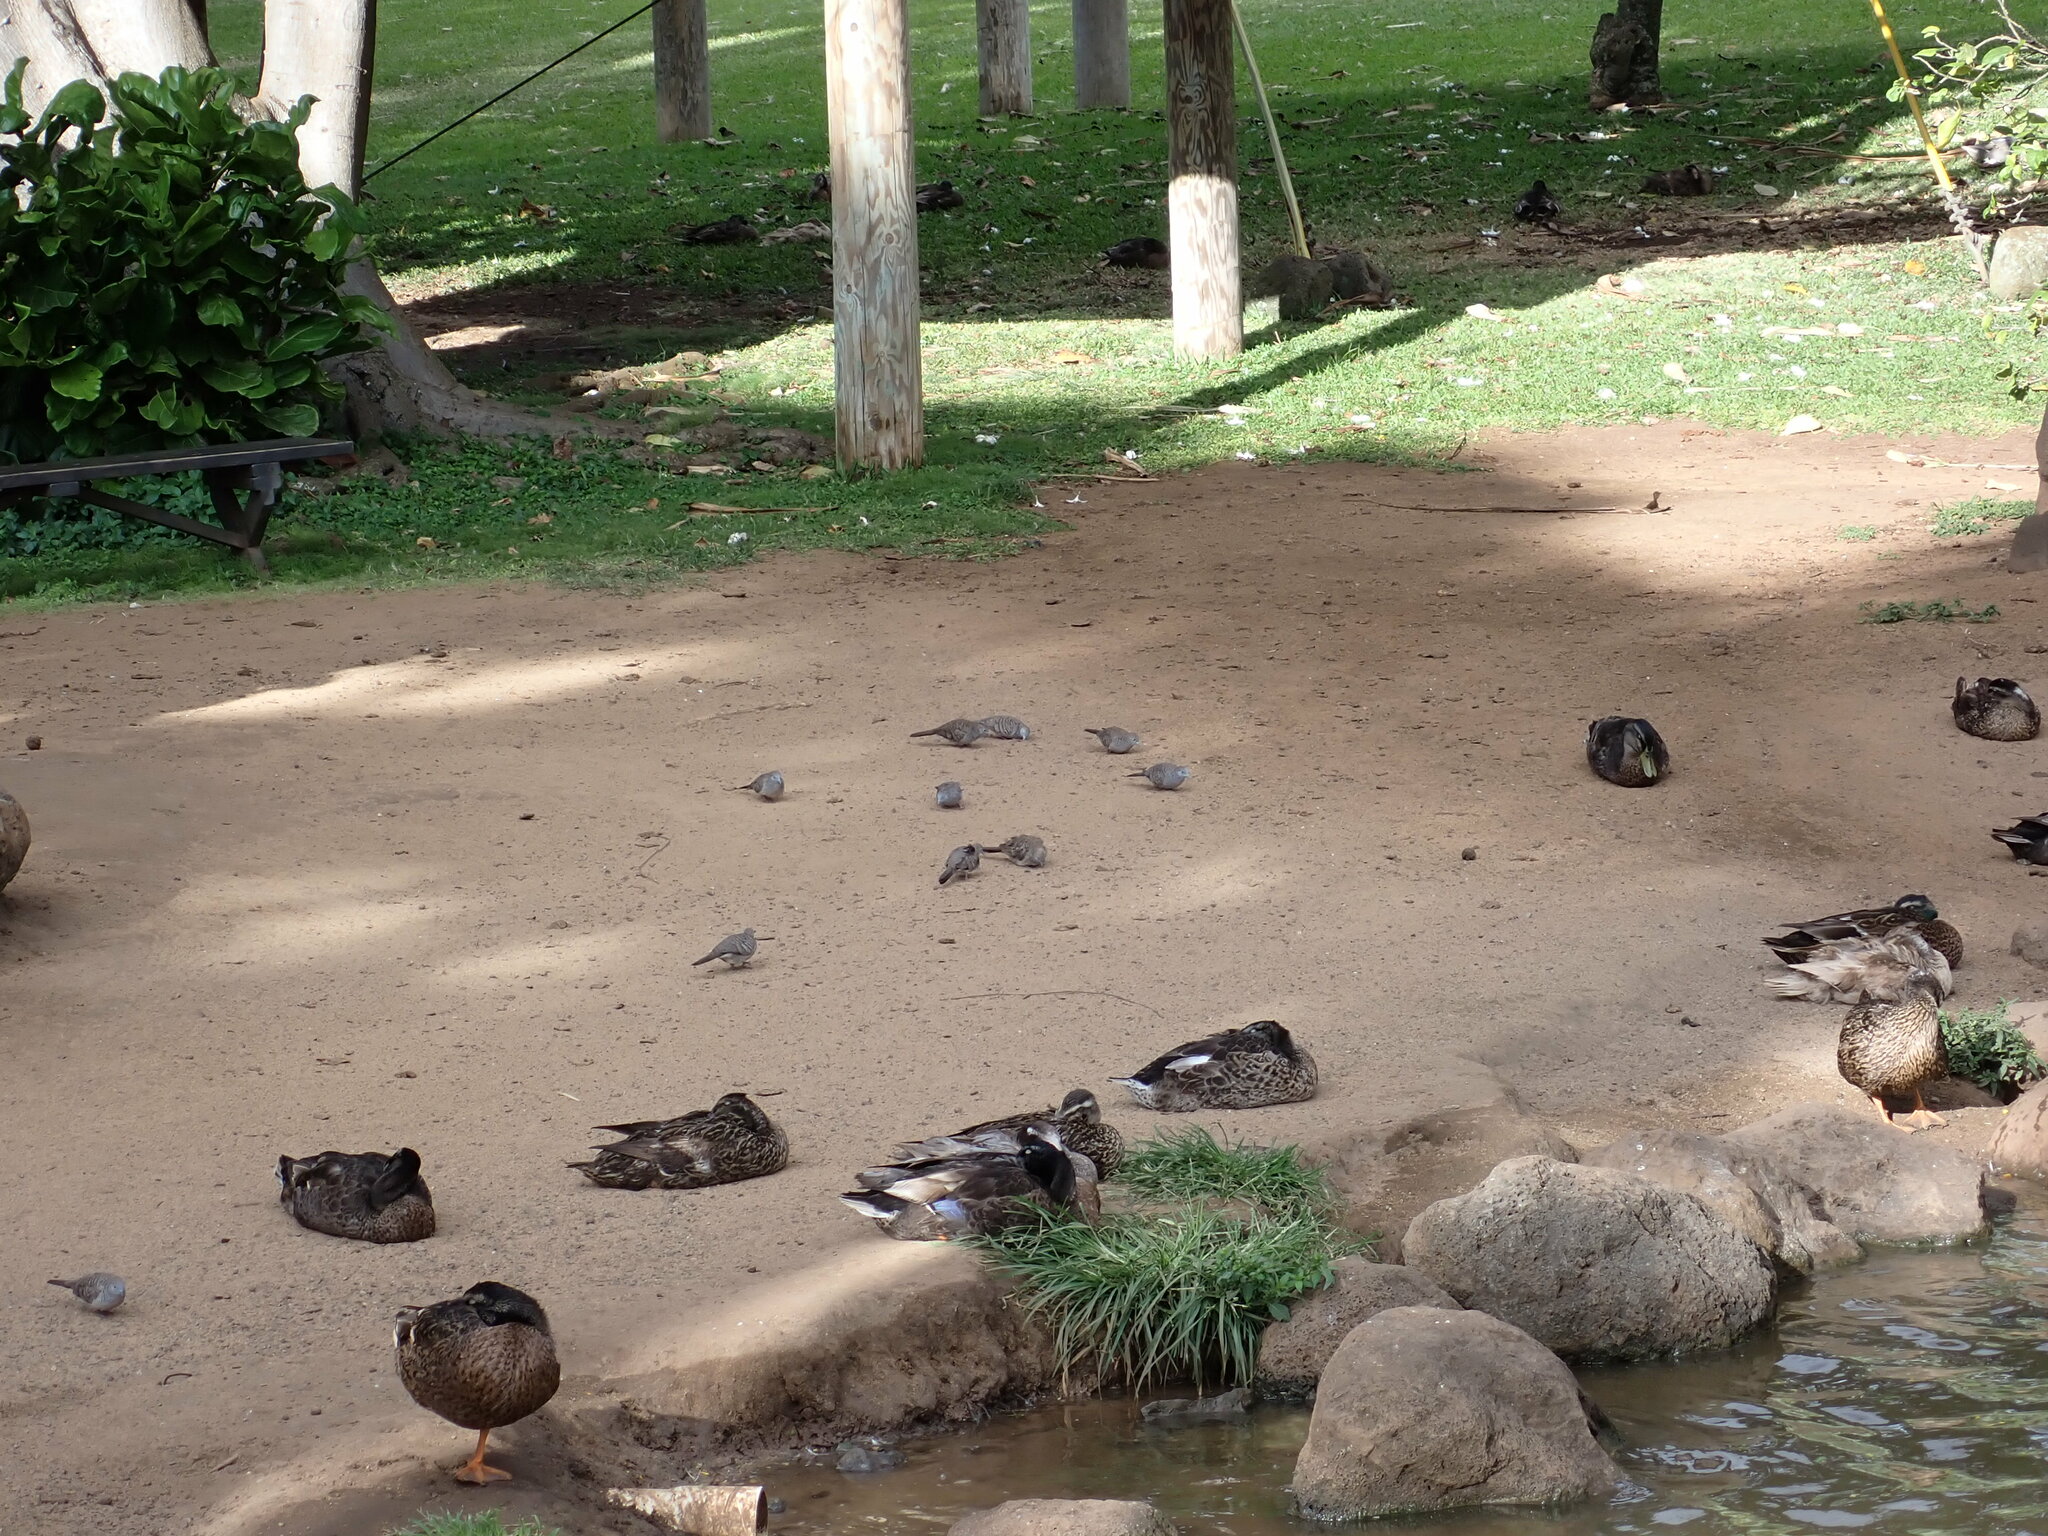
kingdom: Animalia
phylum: Chordata
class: Aves
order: Columbiformes
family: Columbidae
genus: Geopelia
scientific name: Geopelia striata
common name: Zebra dove
